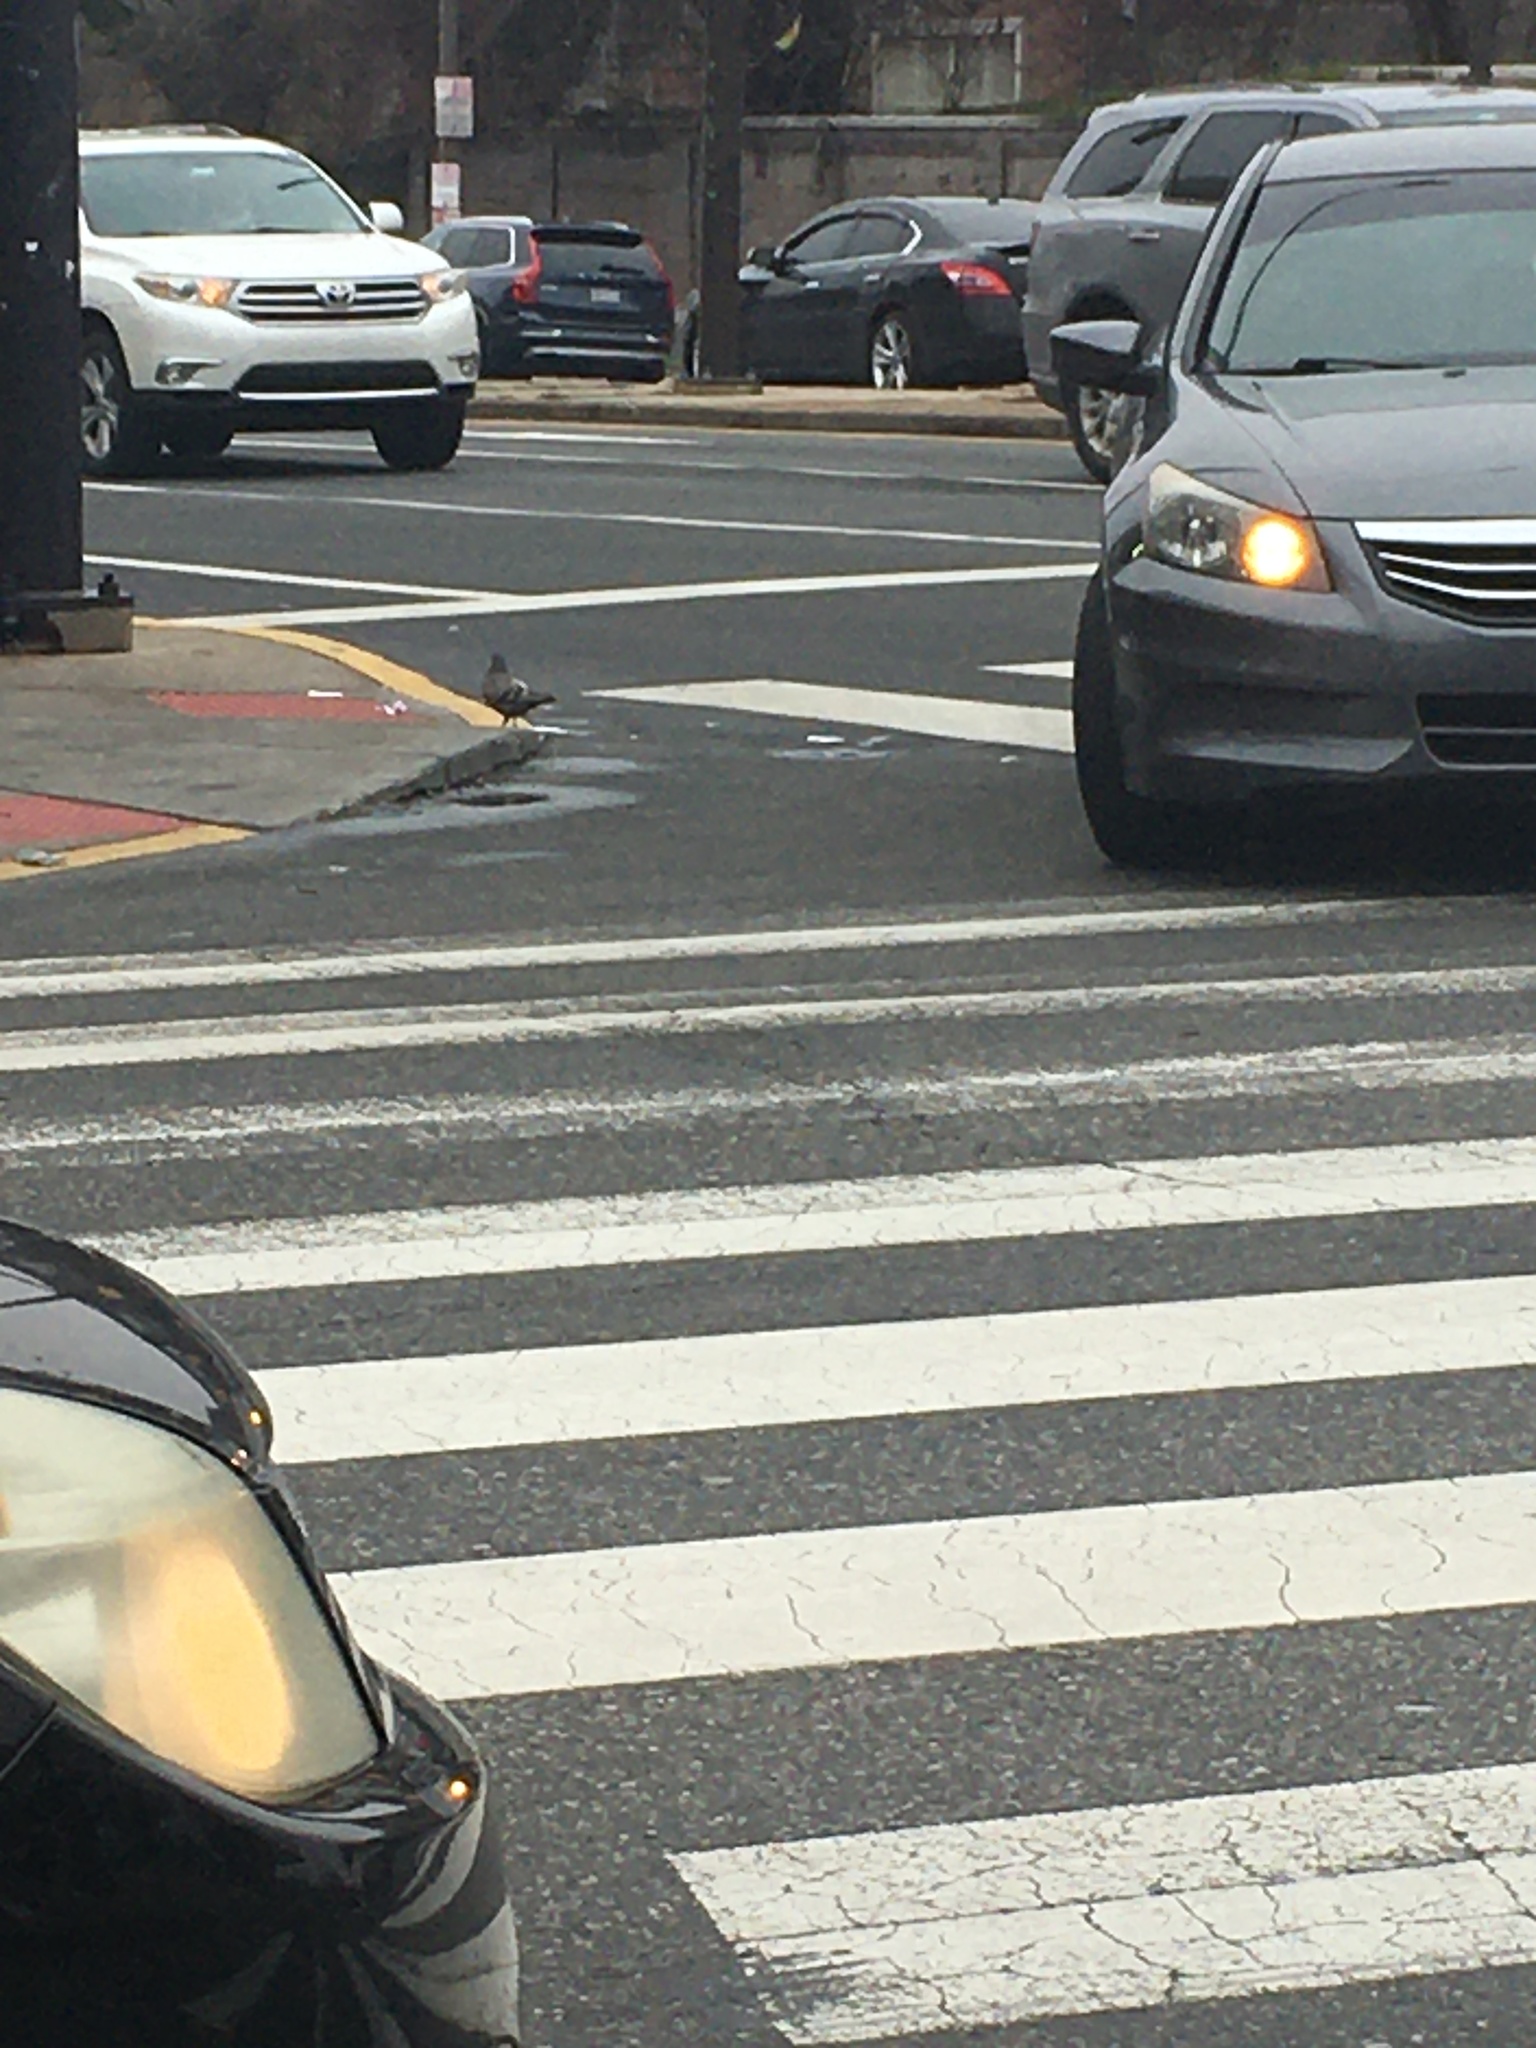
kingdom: Animalia
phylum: Chordata
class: Aves
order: Columbiformes
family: Columbidae
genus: Columba
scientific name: Columba livia
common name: Rock pigeon
